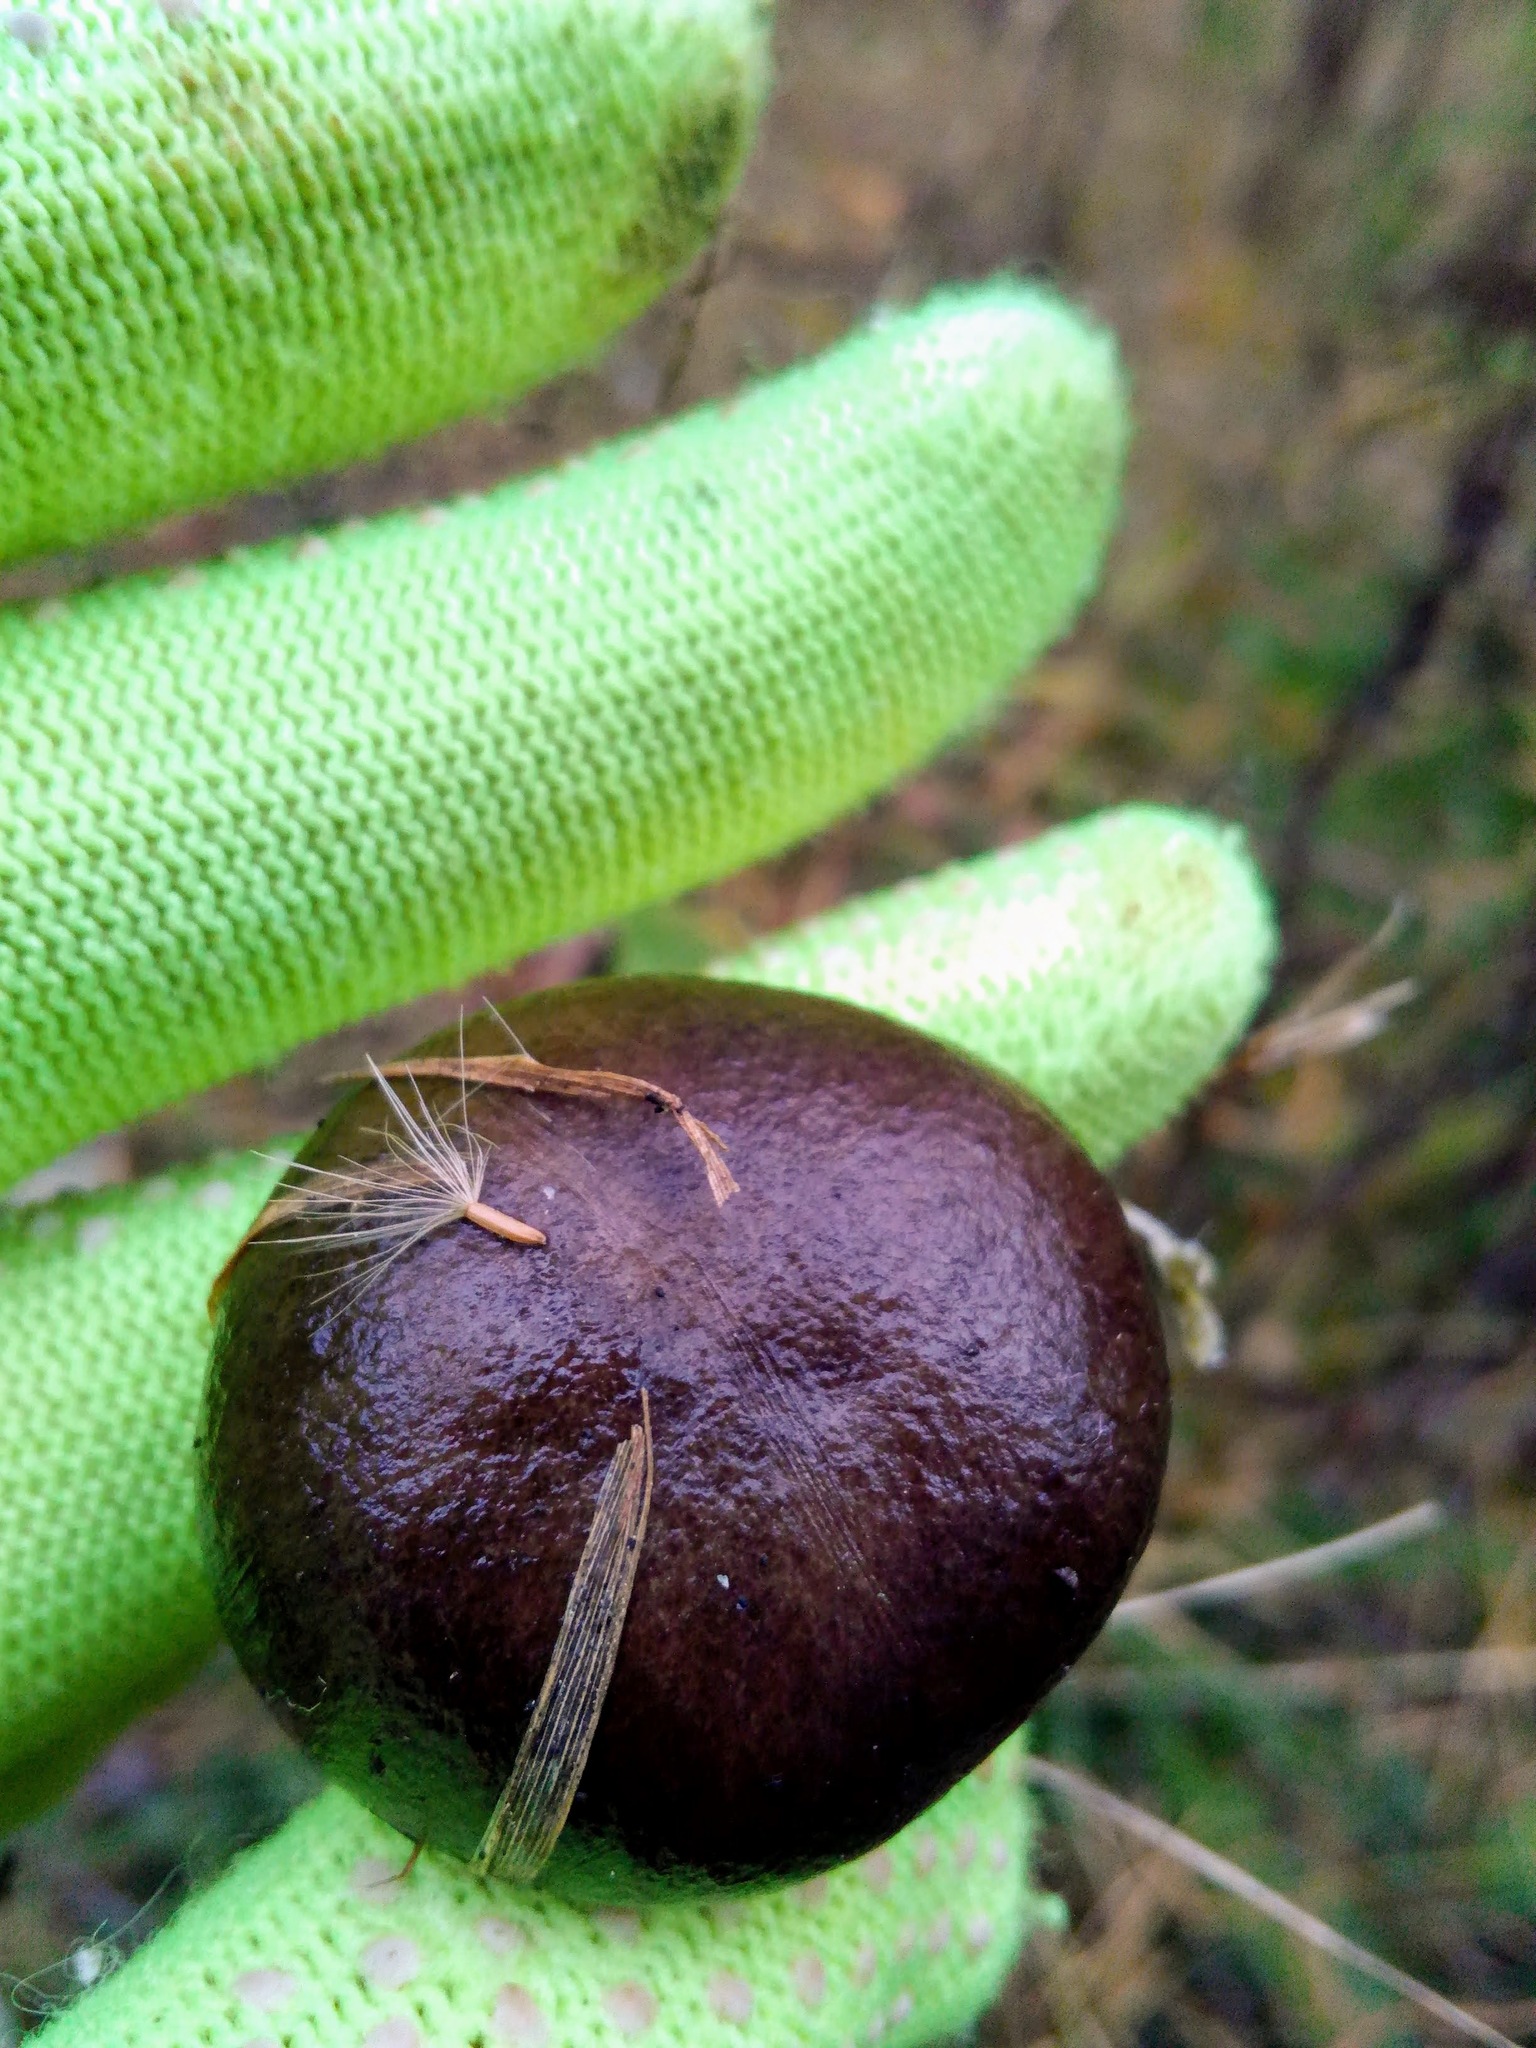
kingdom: Fungi
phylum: Basidiomycota
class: Agaricomycetes
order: Agaricales
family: Hygrophoraceae
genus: Hygrophorus
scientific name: Hygrophorus hypothejus
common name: Herald of winter
